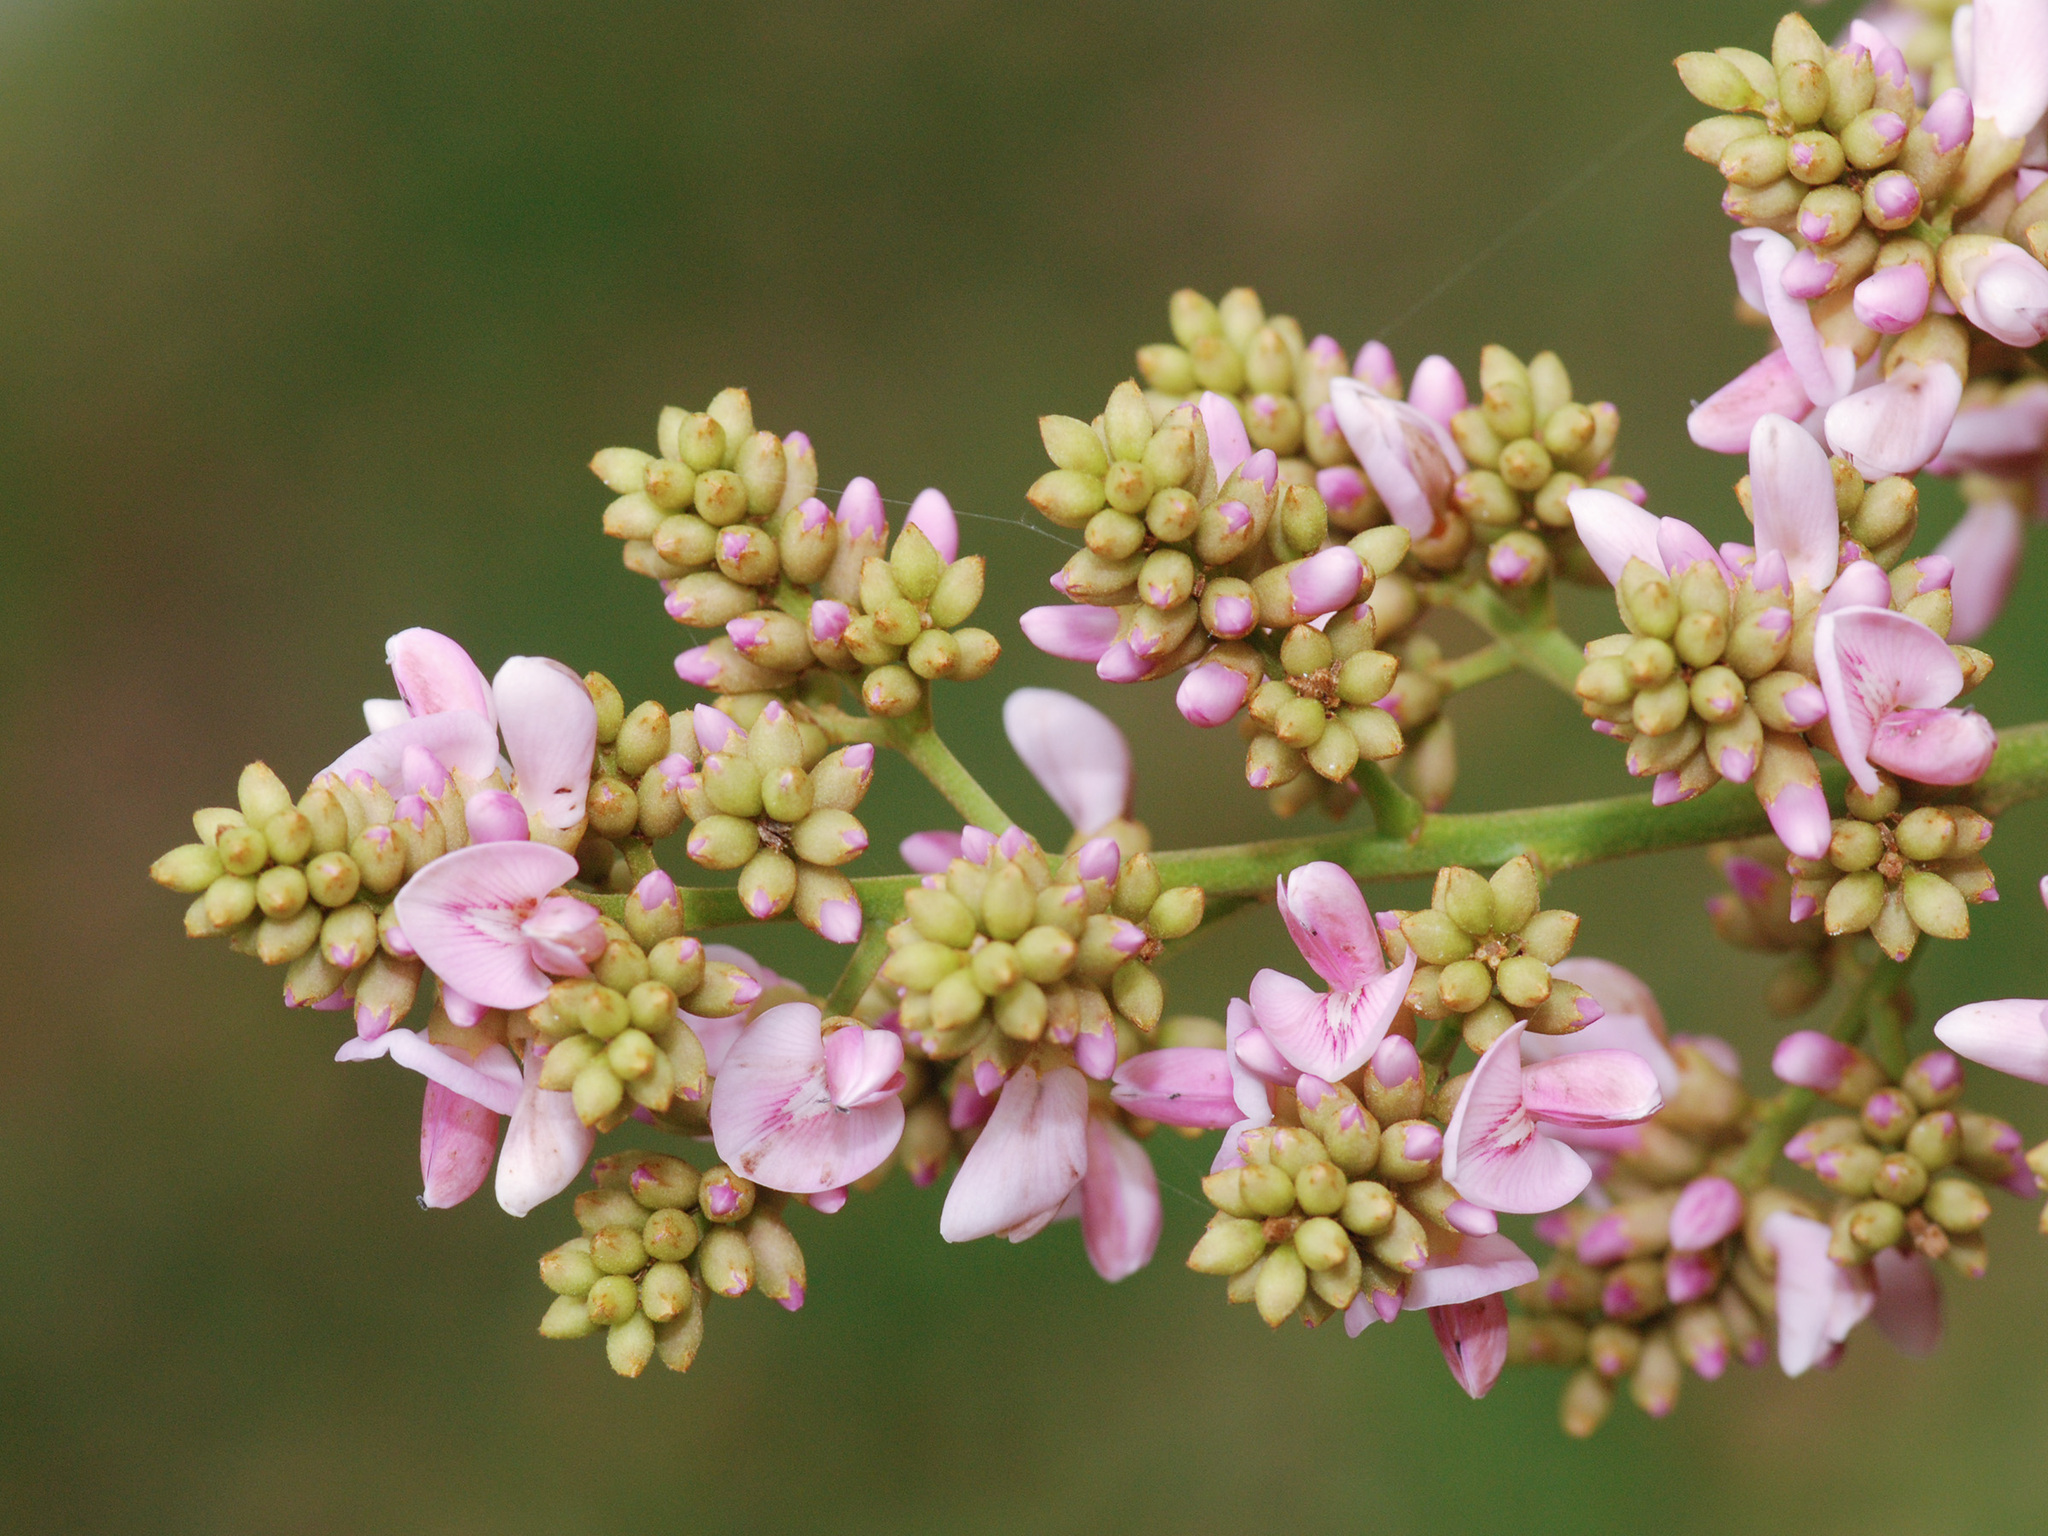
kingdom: Plantae
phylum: Tracheophyta
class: Magnoliopsida
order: Fabales
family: Fabaceae
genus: Andira
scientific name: Andira inermis
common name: Angelin
